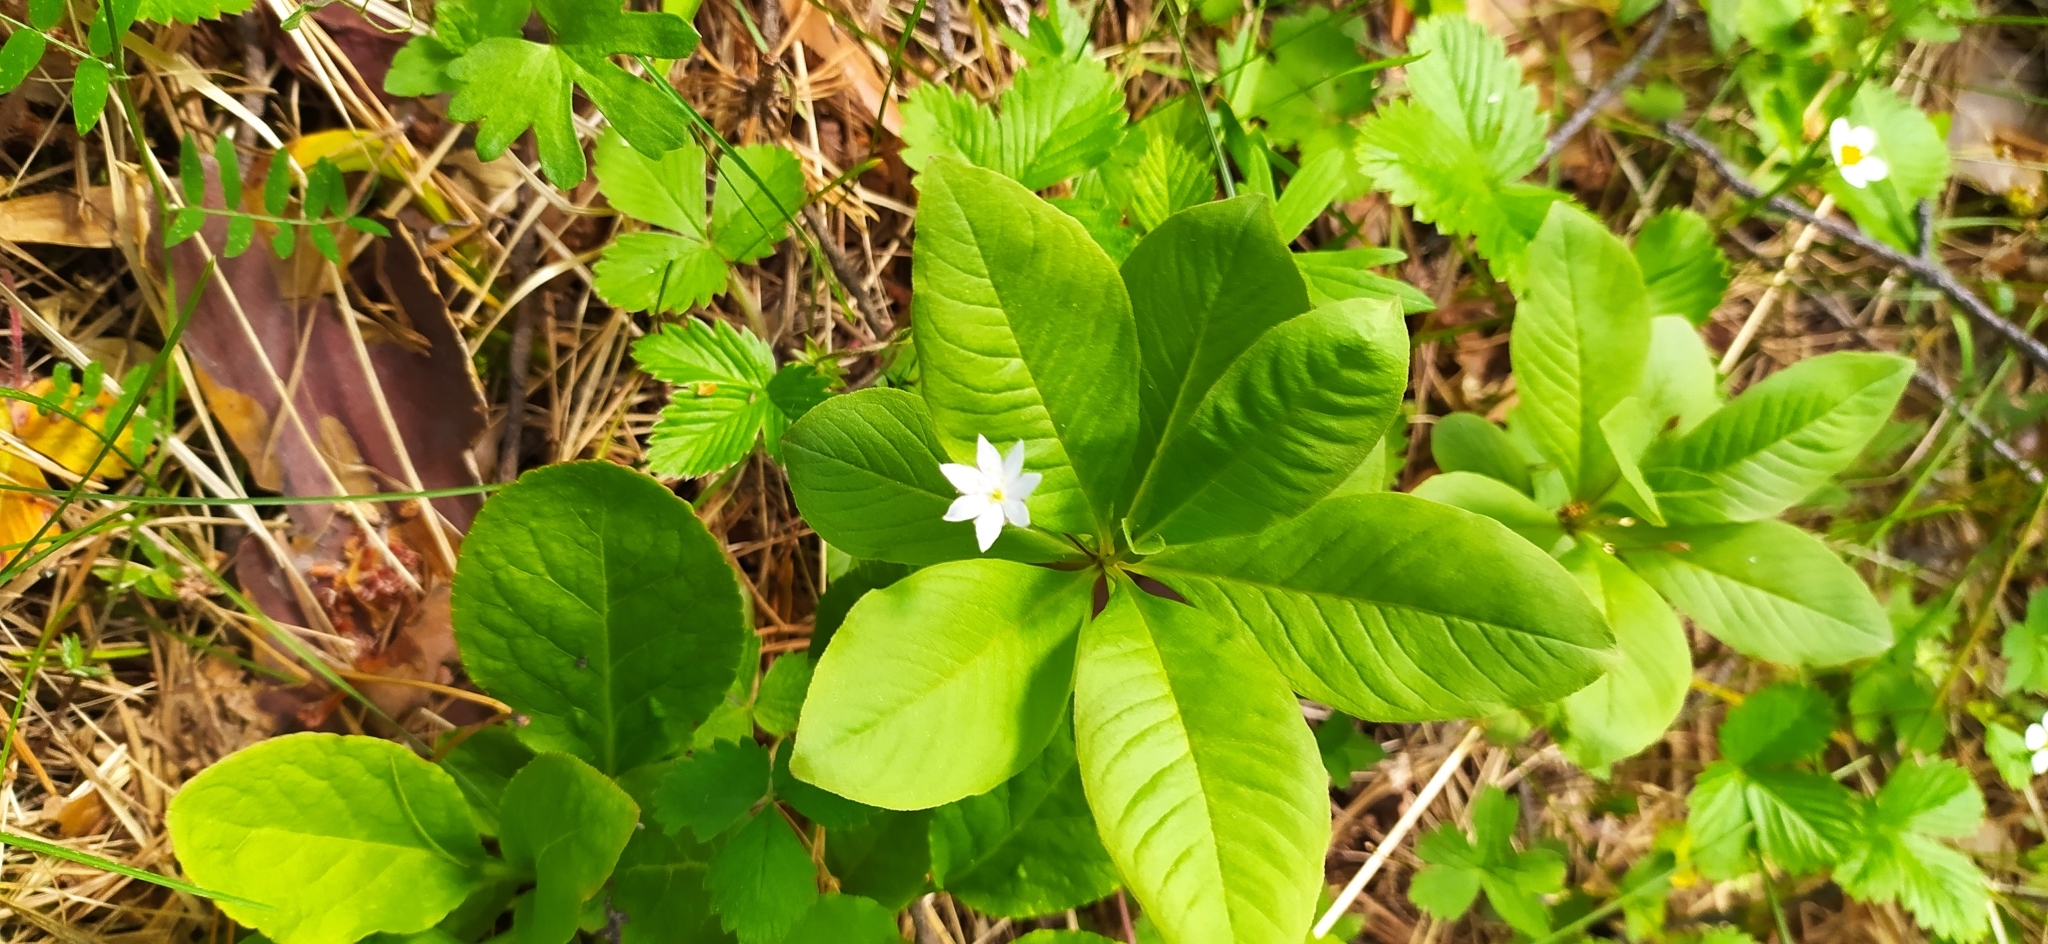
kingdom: Plantae
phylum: Tracheophyta
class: Magnoliopsida
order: Ericales
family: Primulaceae
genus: Lysimachia
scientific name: Lysimachia europaea
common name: Arctic starflower
